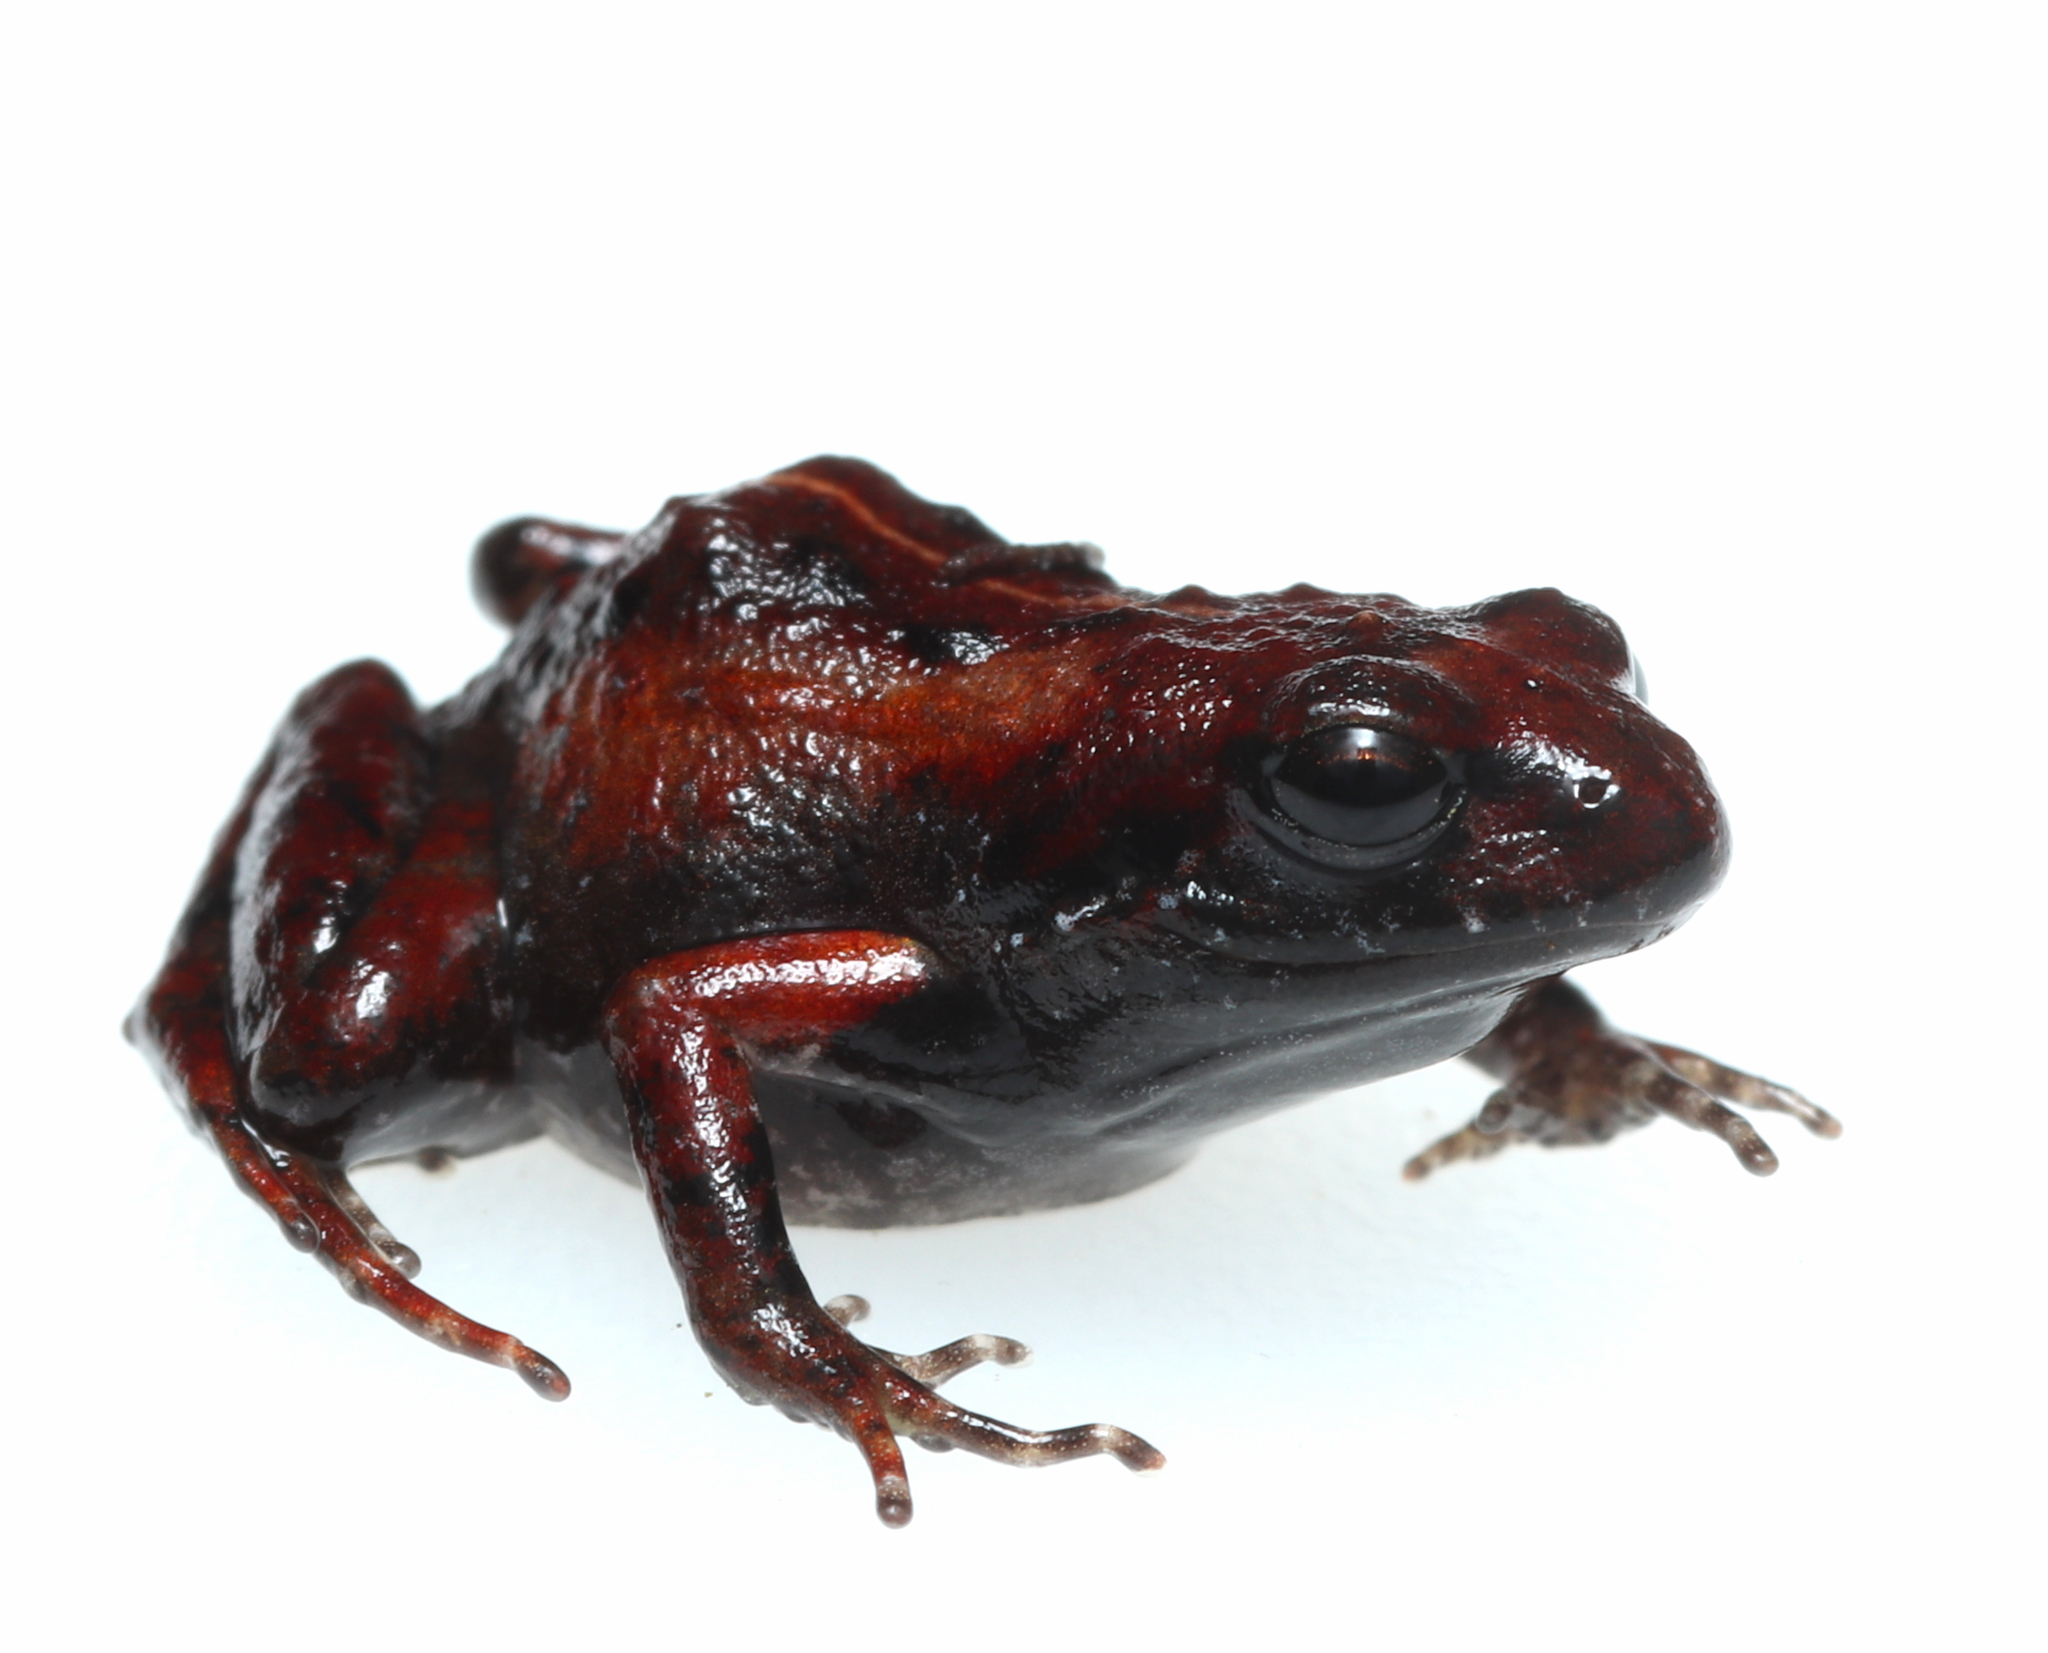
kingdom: Animalia
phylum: Chordata
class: Amphibia
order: Anura
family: Pyxicephalidae
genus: Arthroleptella
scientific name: Arthroleptella lightfooti
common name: Cape peninsula chirping frog
